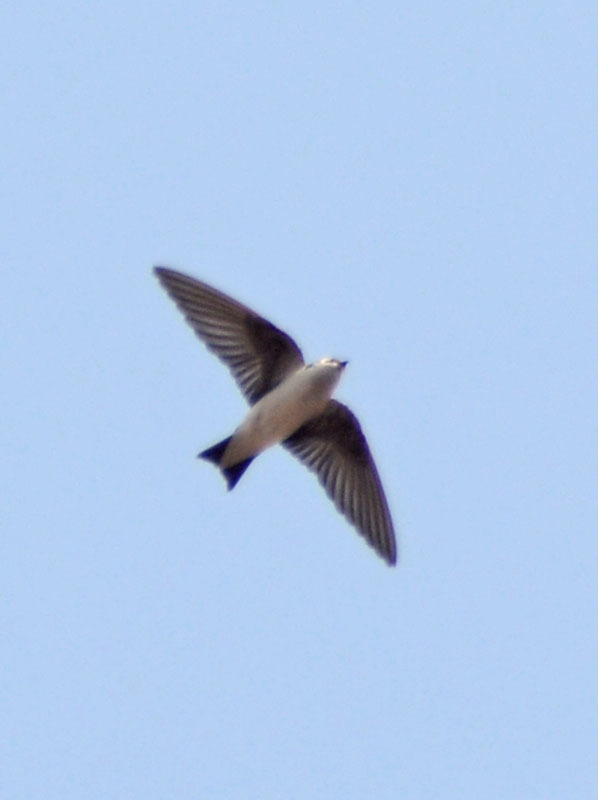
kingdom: Animalia
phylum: Chordata
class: Aves
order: Passeriformes
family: Hirundinidae
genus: Tachycineta
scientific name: Tachycineta thalassina
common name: Violet-green swallow
